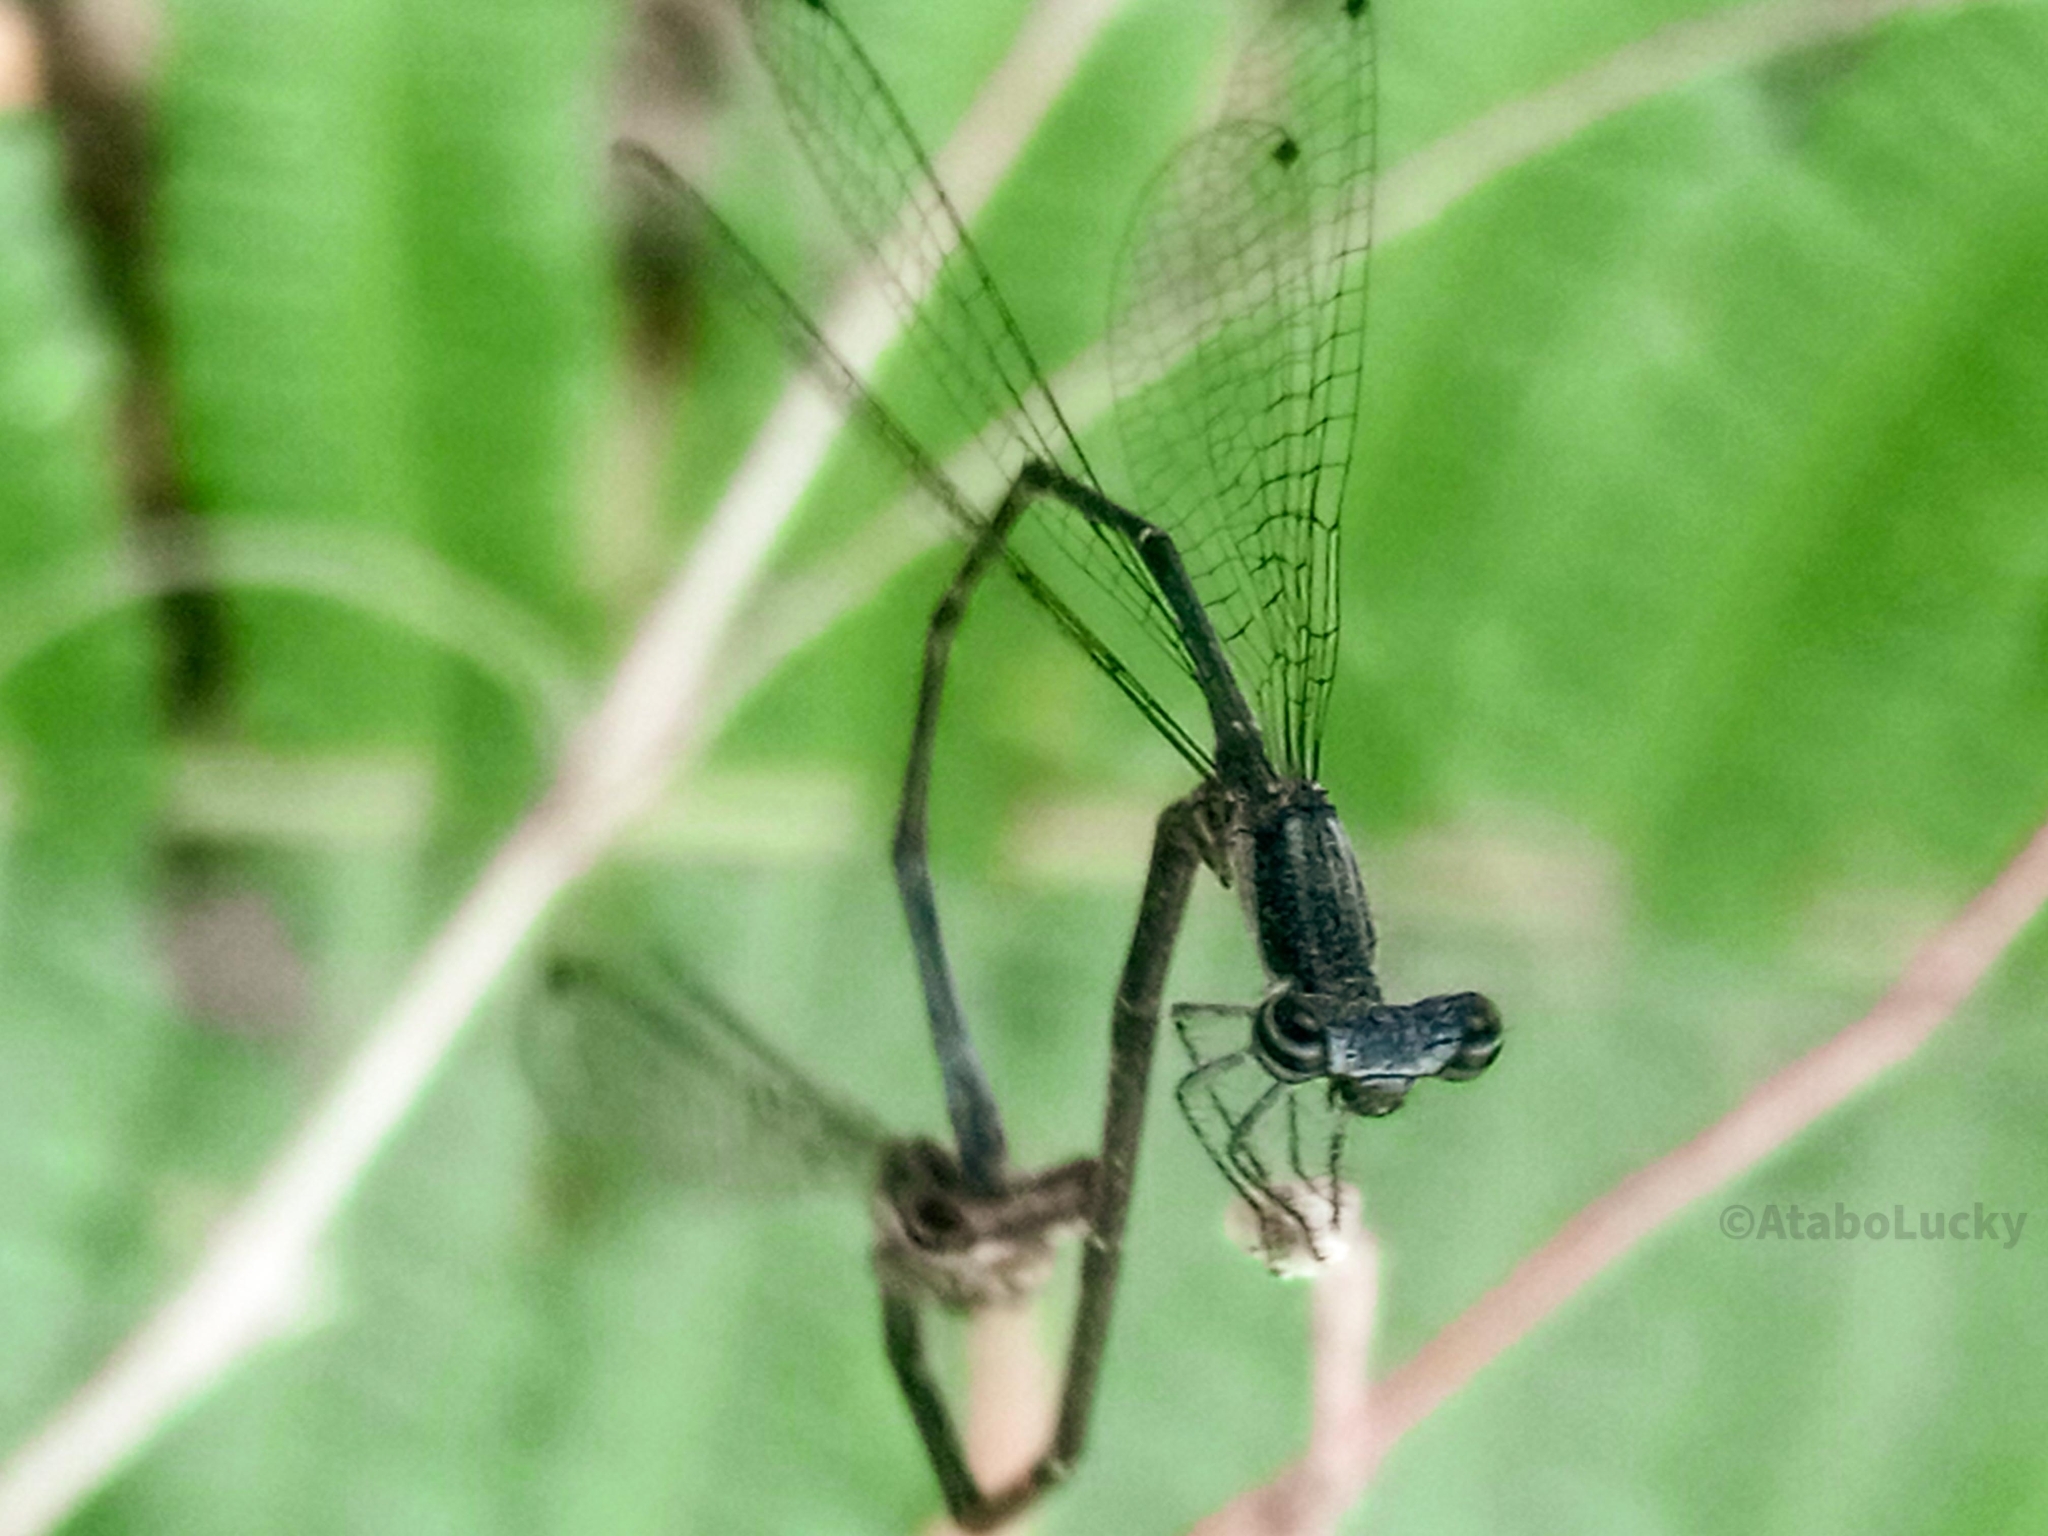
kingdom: Animalia
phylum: Arthropoda
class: Insecta
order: Odonata
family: Platycnemididae
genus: Elattoneura
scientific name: Elattoneura nigra
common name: Black threadtail
